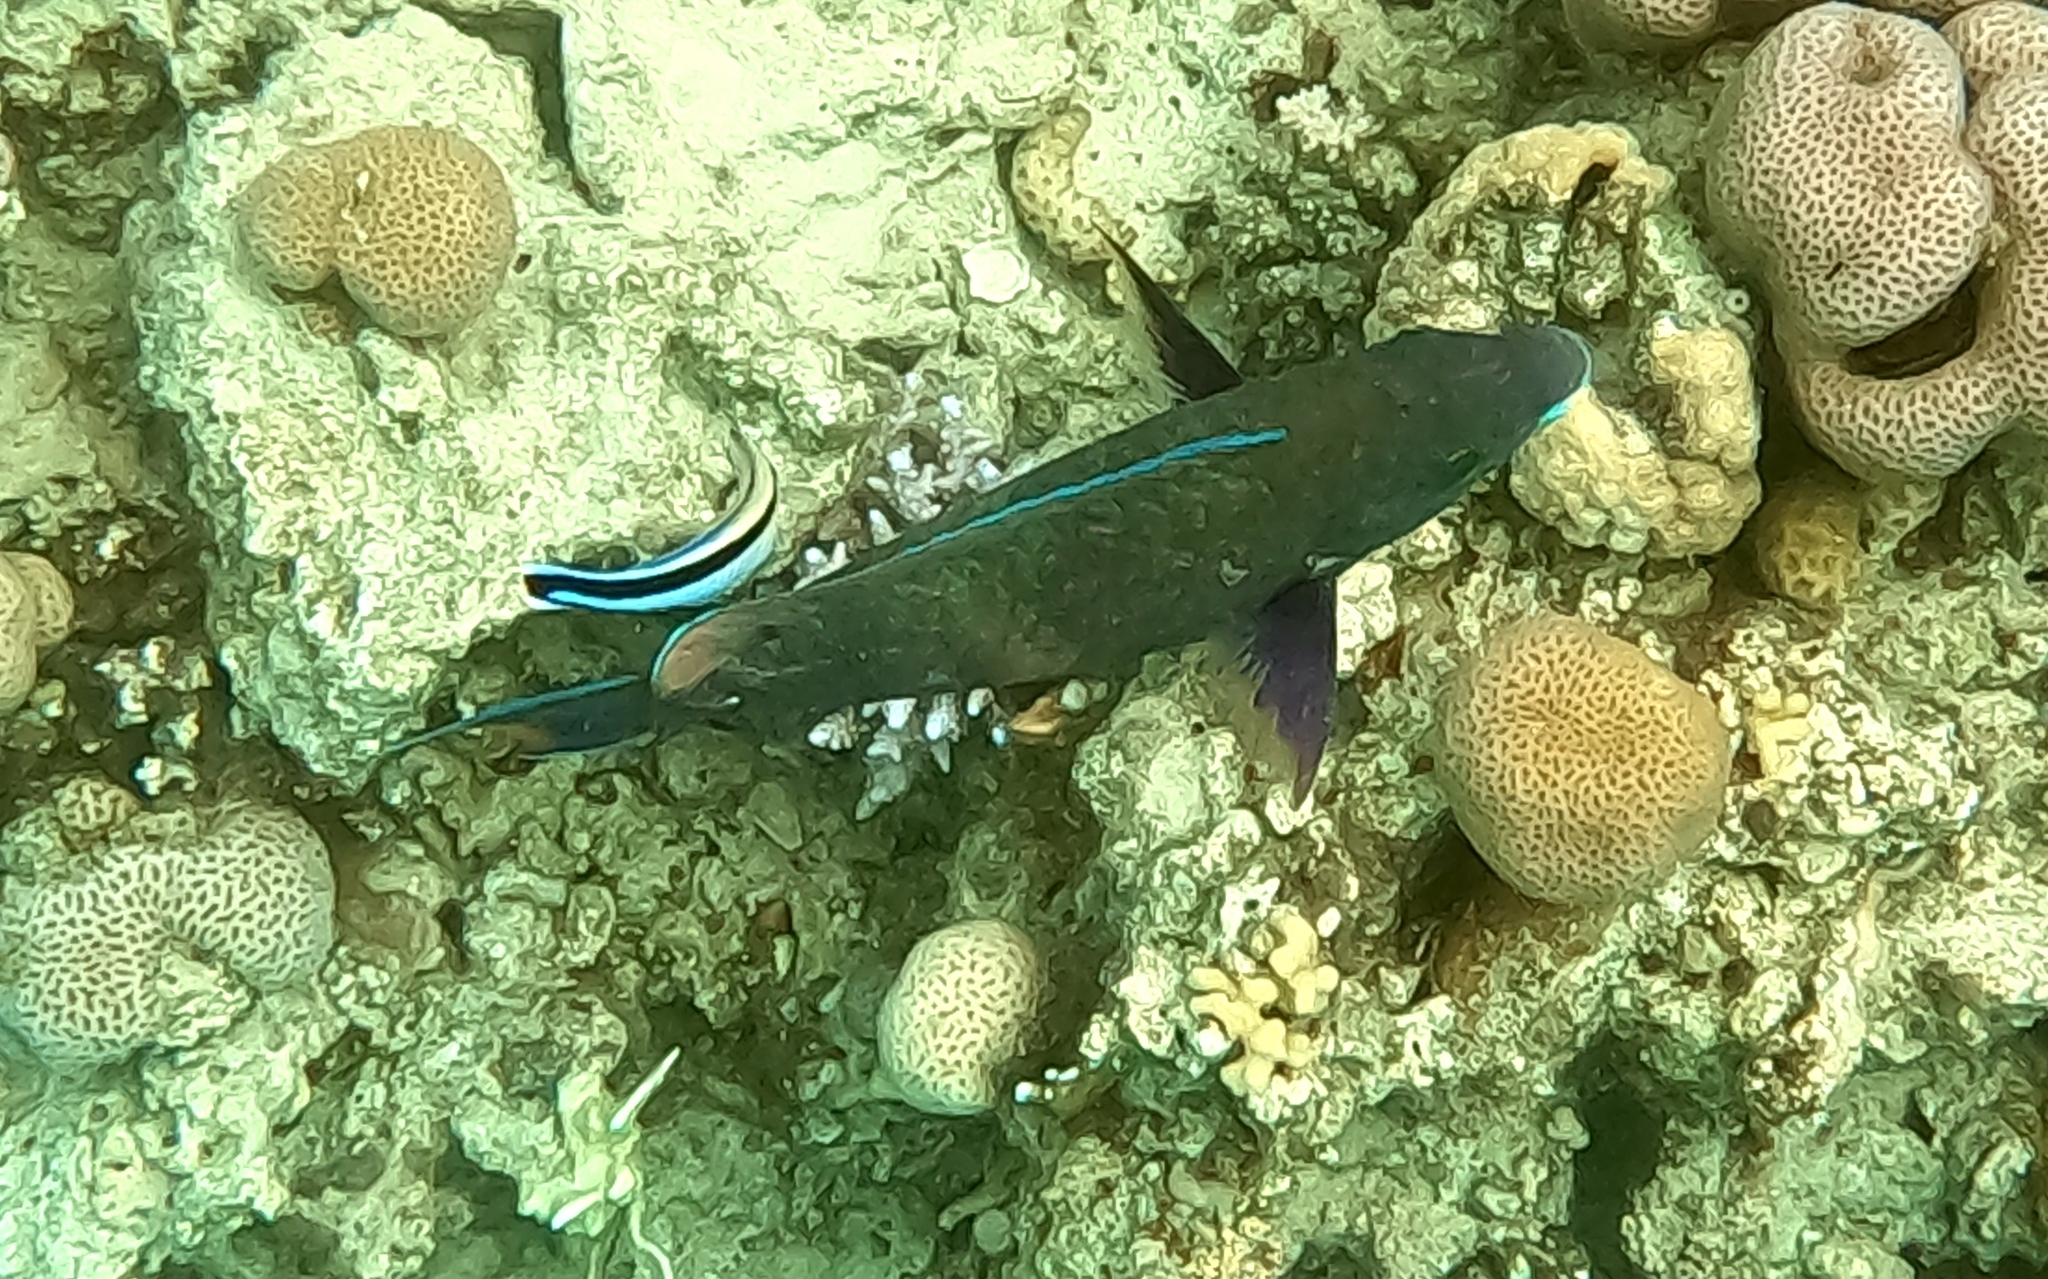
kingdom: Animalia
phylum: Chordata
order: Perciformes
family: Labridae
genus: Labroides
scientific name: Labroides dimidiatus
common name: Blue diesel wrasse
